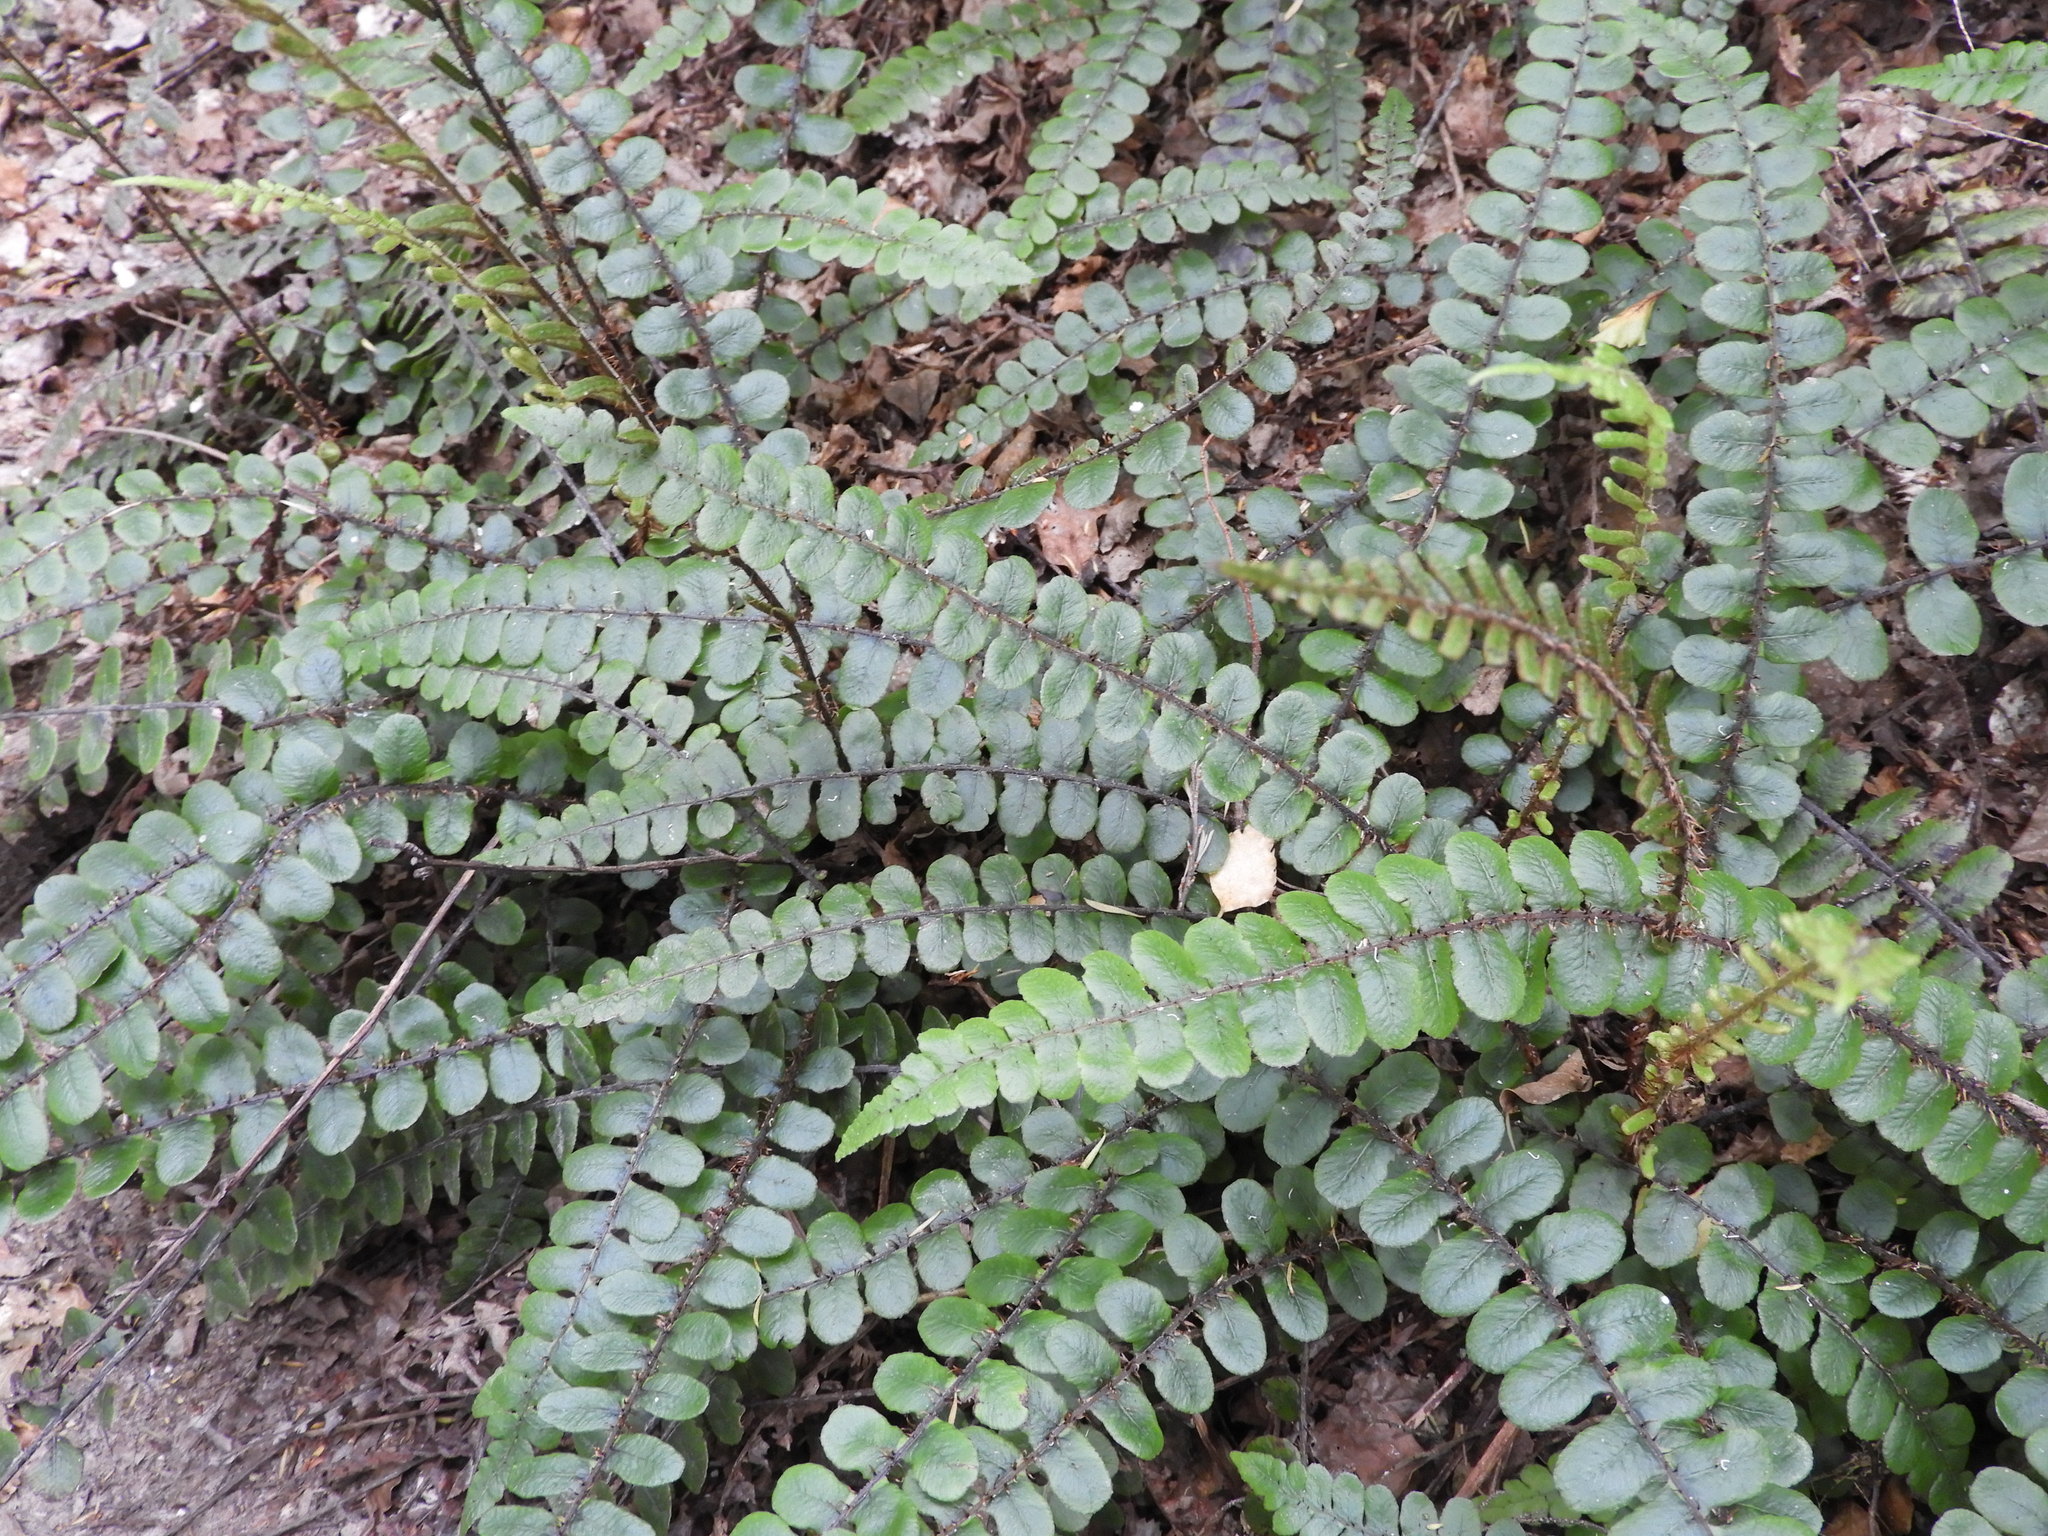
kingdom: Plantae
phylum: Tracheophyta
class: Polypodiopsida
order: Polypodiales
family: Blechnaceae
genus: Cranfillia
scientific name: Cranfillia fluviatilis
